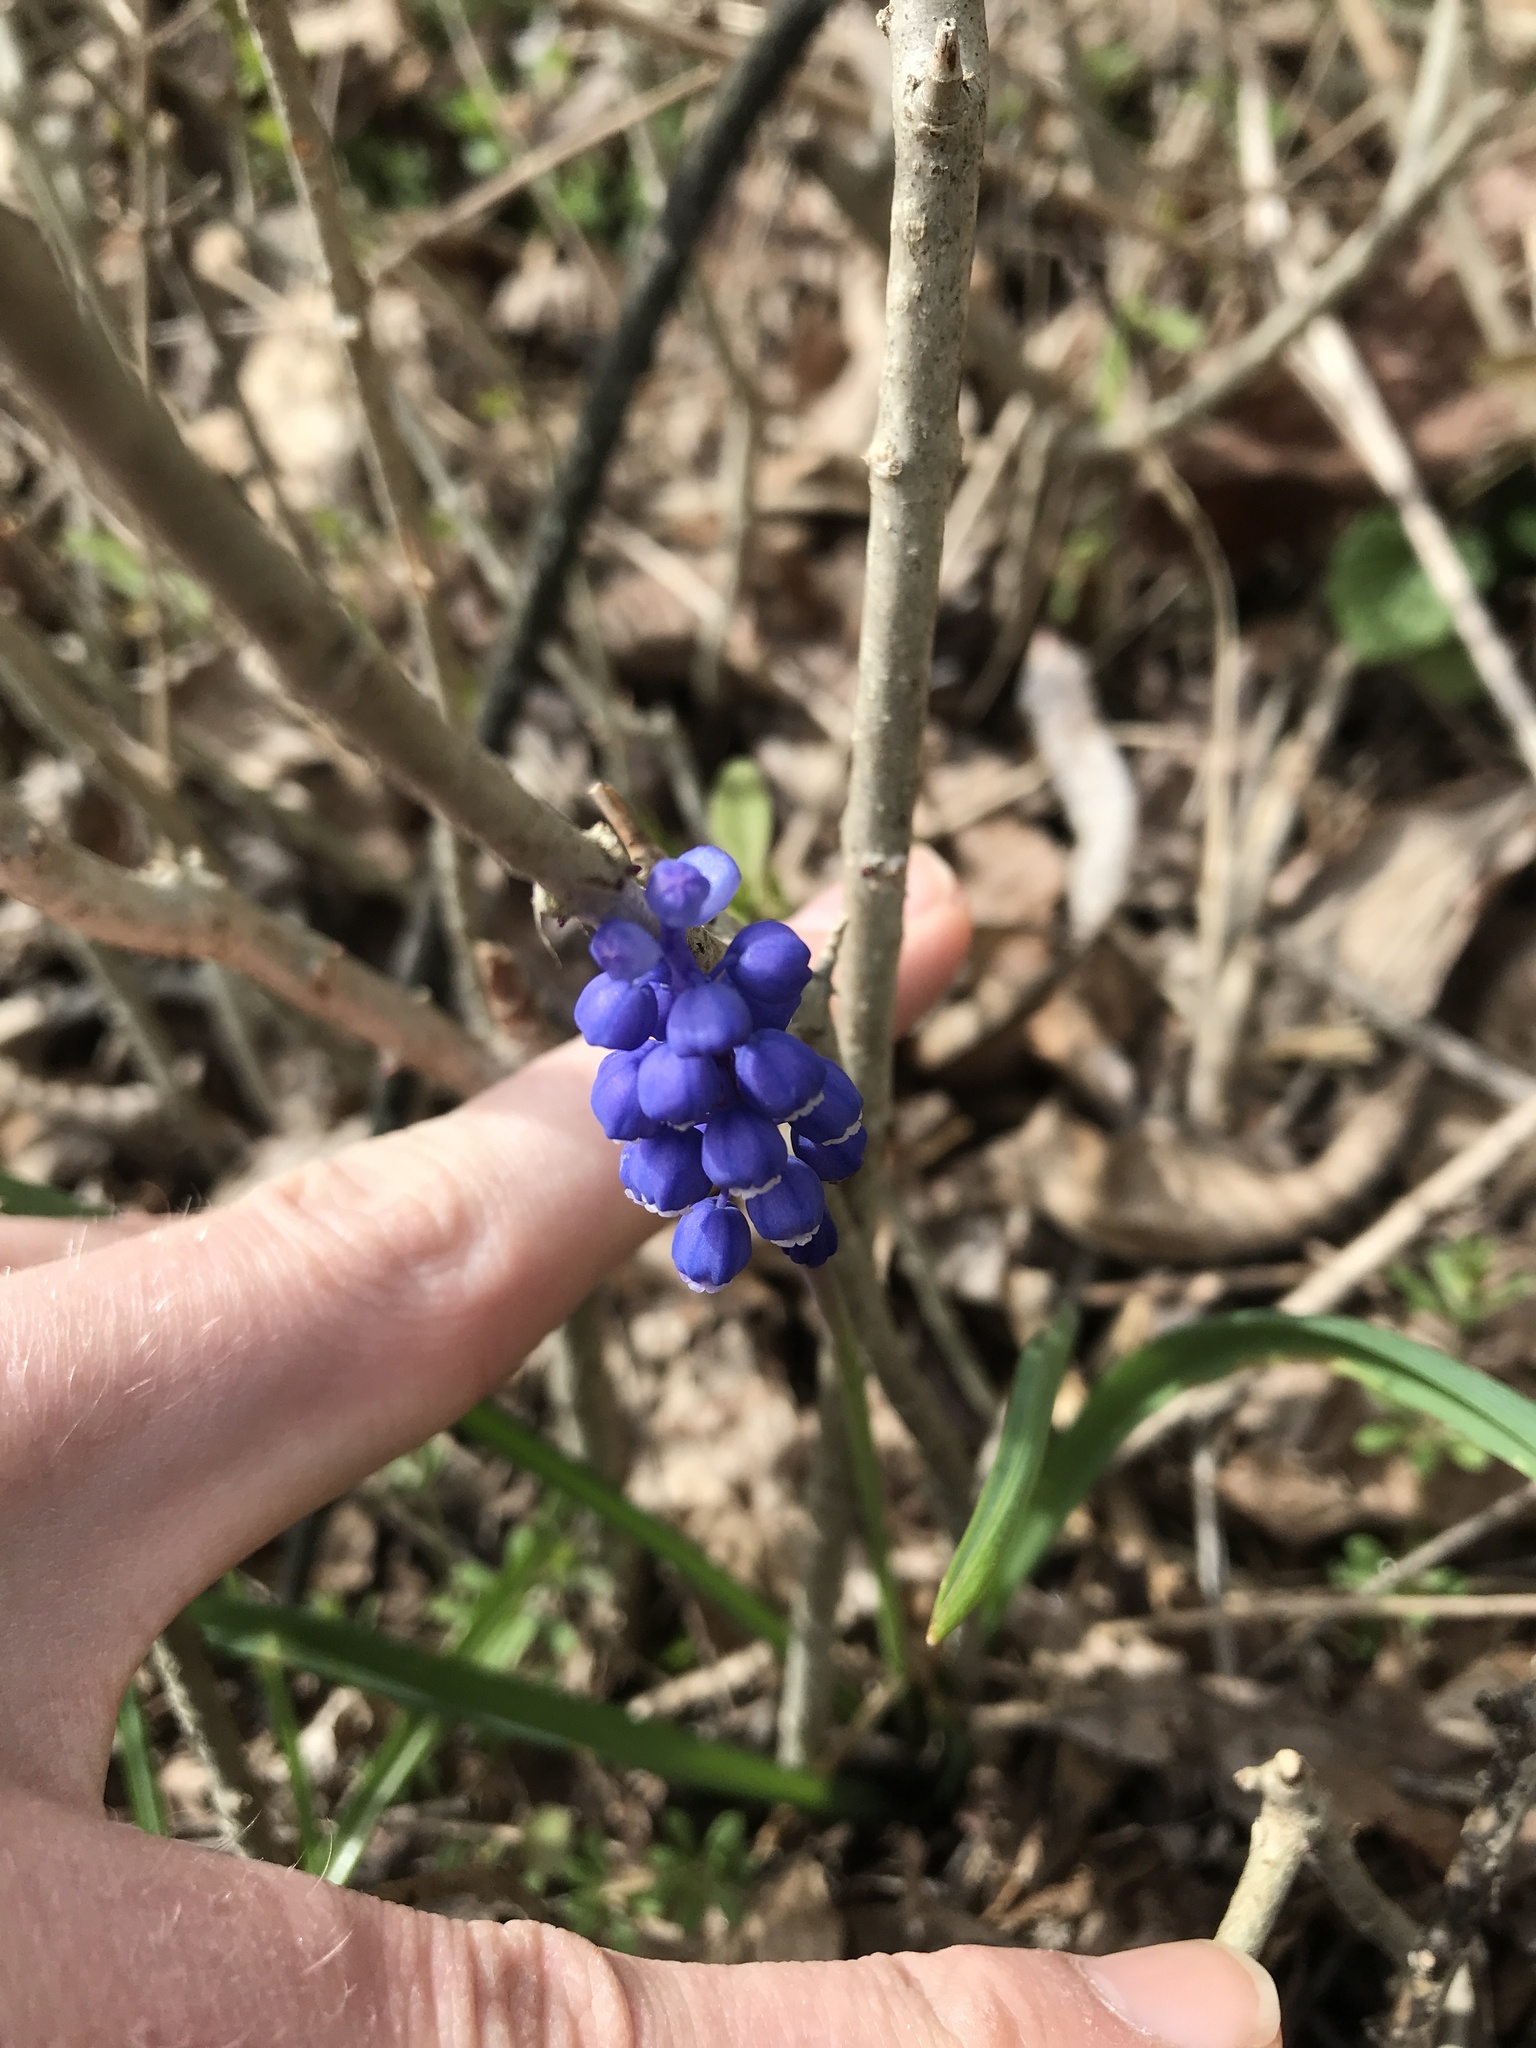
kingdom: Plantae
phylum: Tracheophyta
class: Liliopsida
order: Asparagales
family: Asparagaceae
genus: Muscari
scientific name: Muscari botryoides
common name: Compact grape-hyacinth
